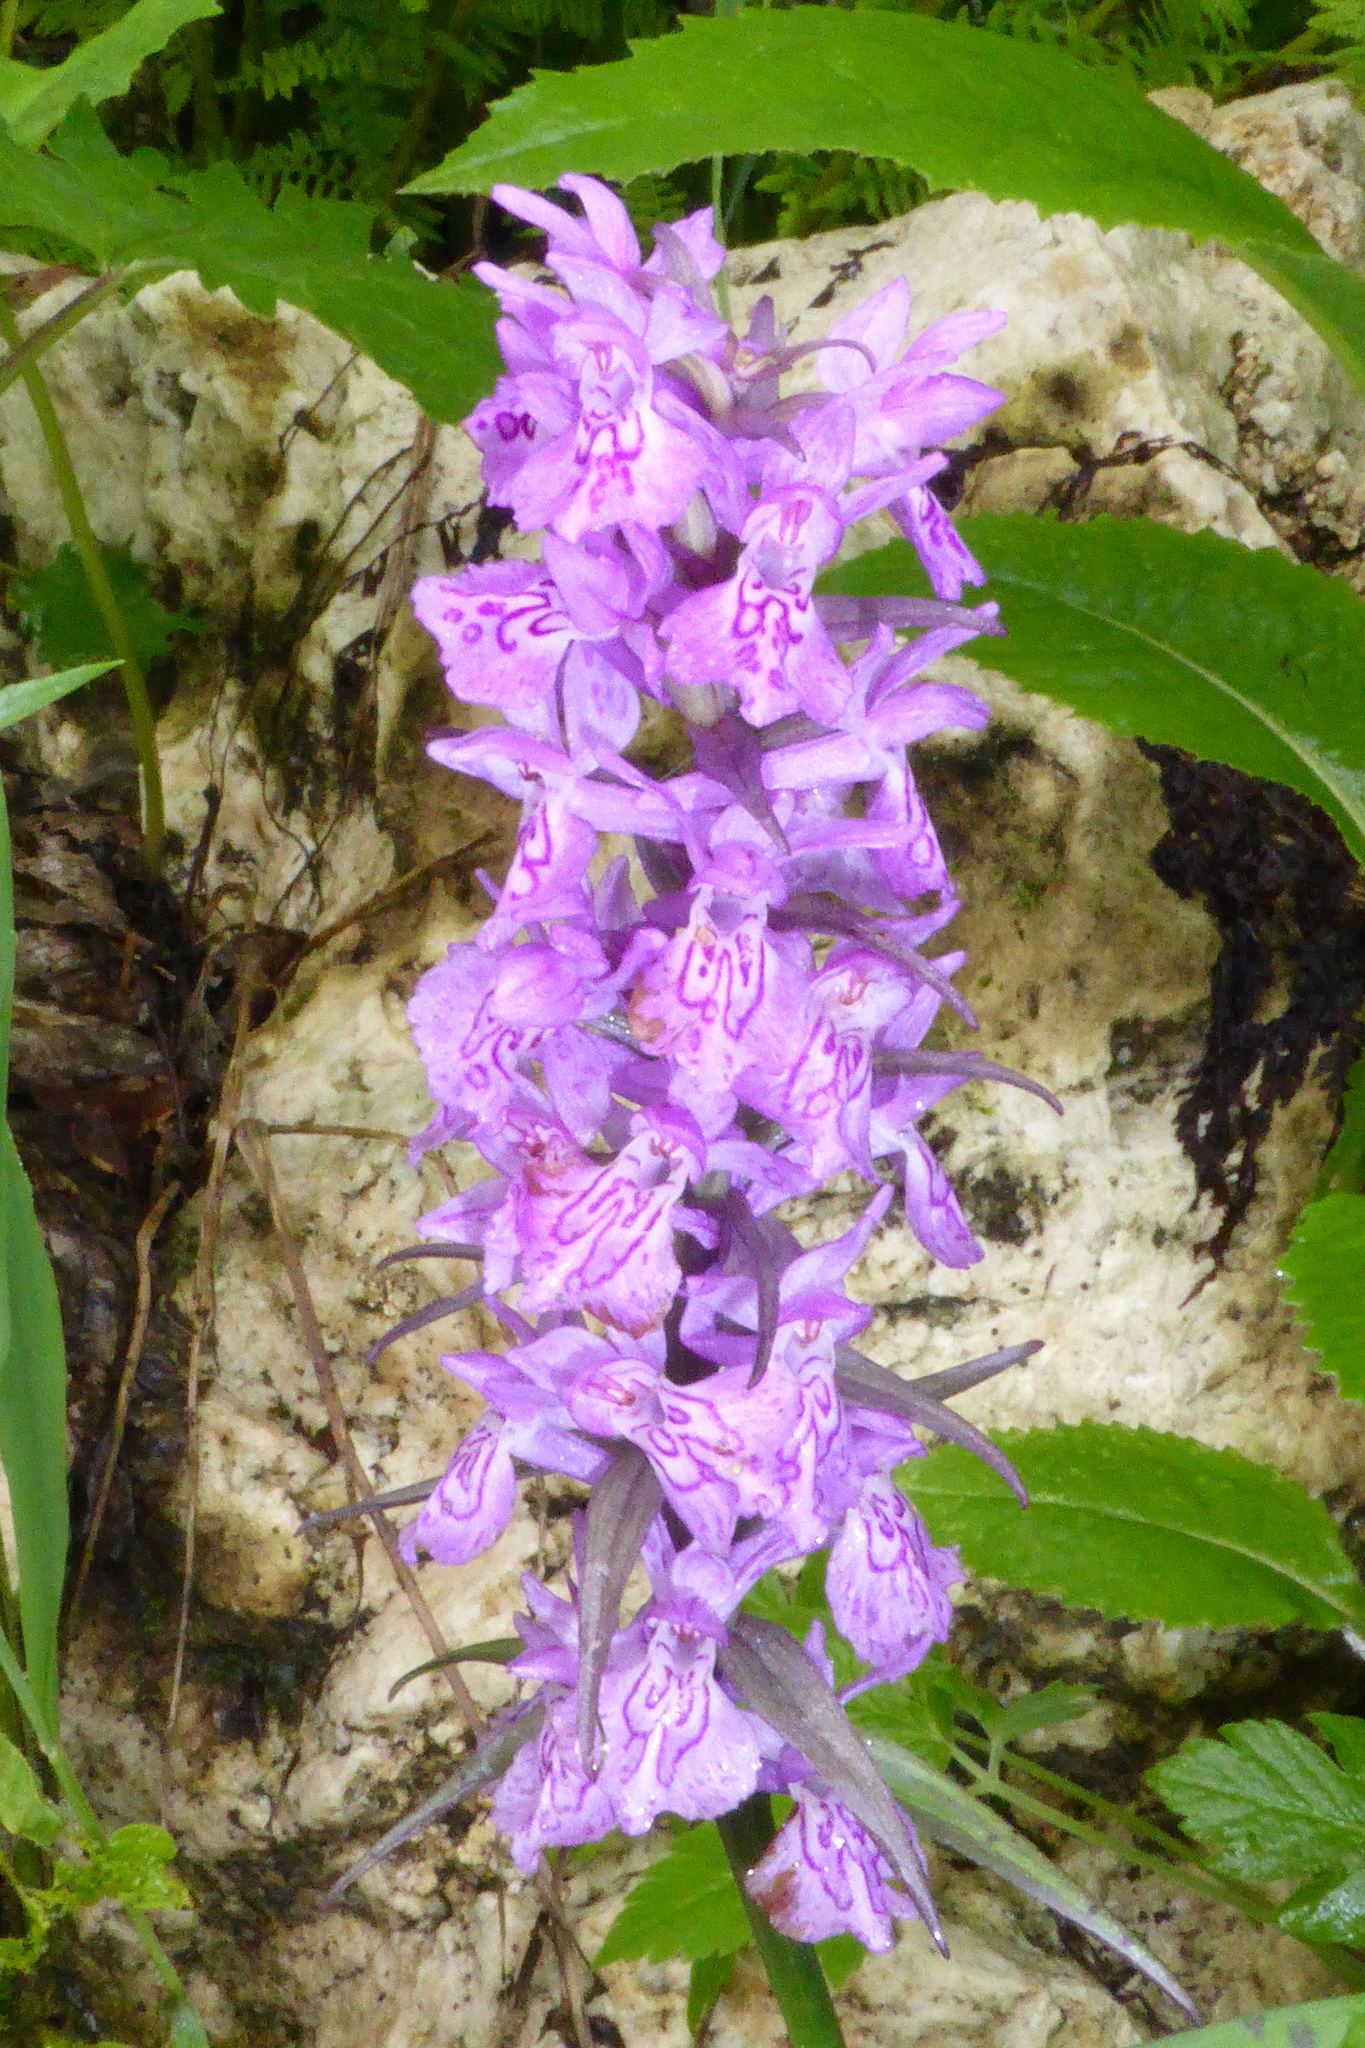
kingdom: Plantae
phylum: Tracheophyta
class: Liliopsida
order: Asparagales
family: Orchidaceae
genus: Dactylorhiza
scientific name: Dactylorhiza urvilleana
